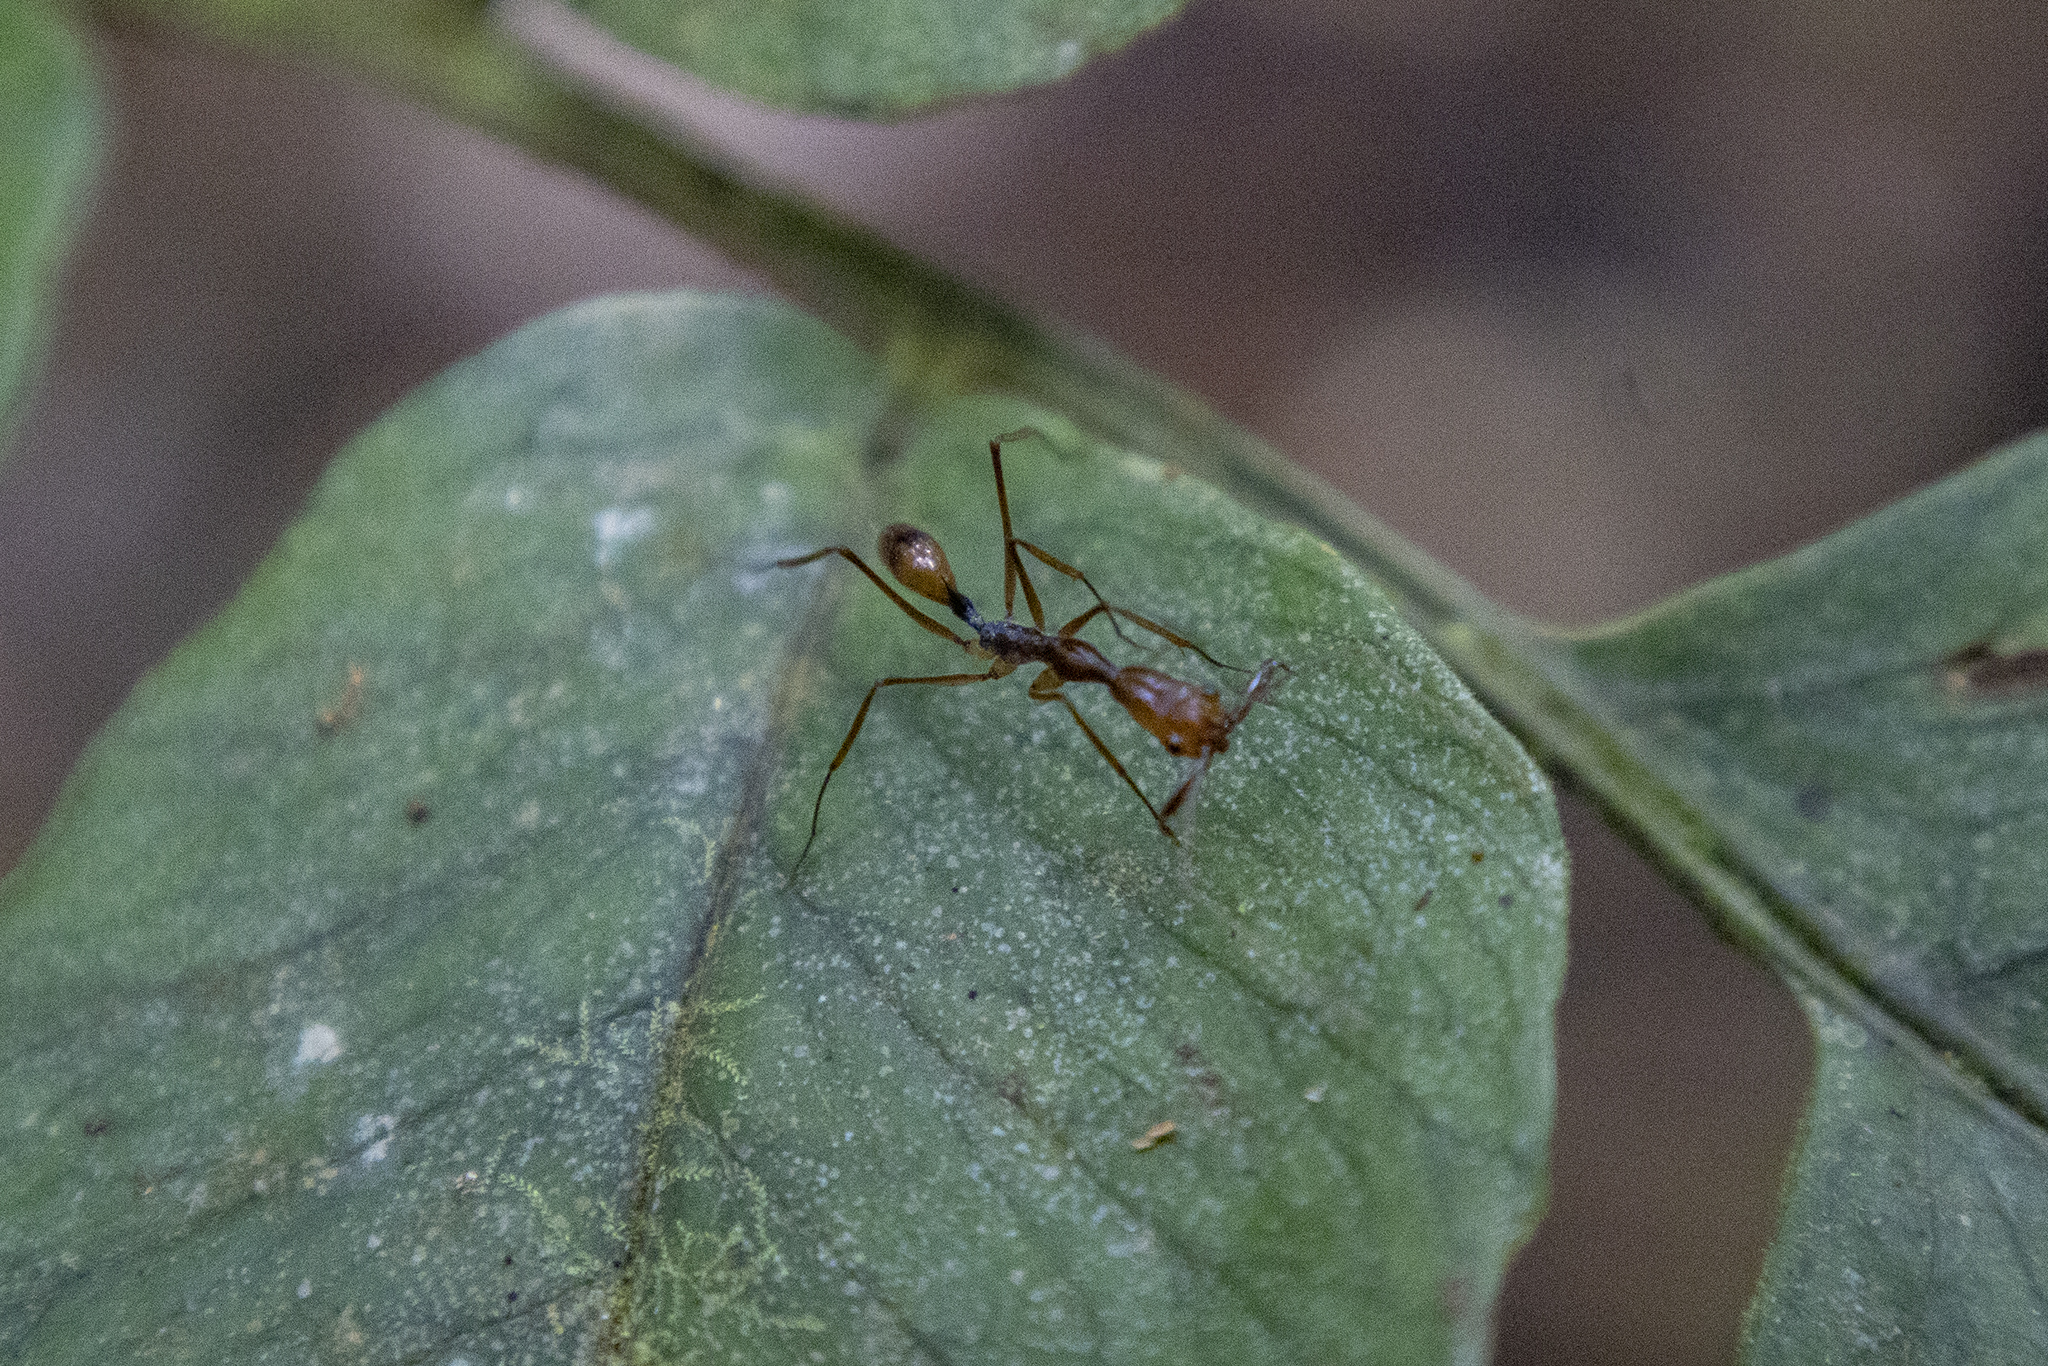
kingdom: Animalia
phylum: Arthropoda
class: Insecta
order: Hymenoptera
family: Formicidae
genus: Odontomachus
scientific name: Odontomachus hastatus
